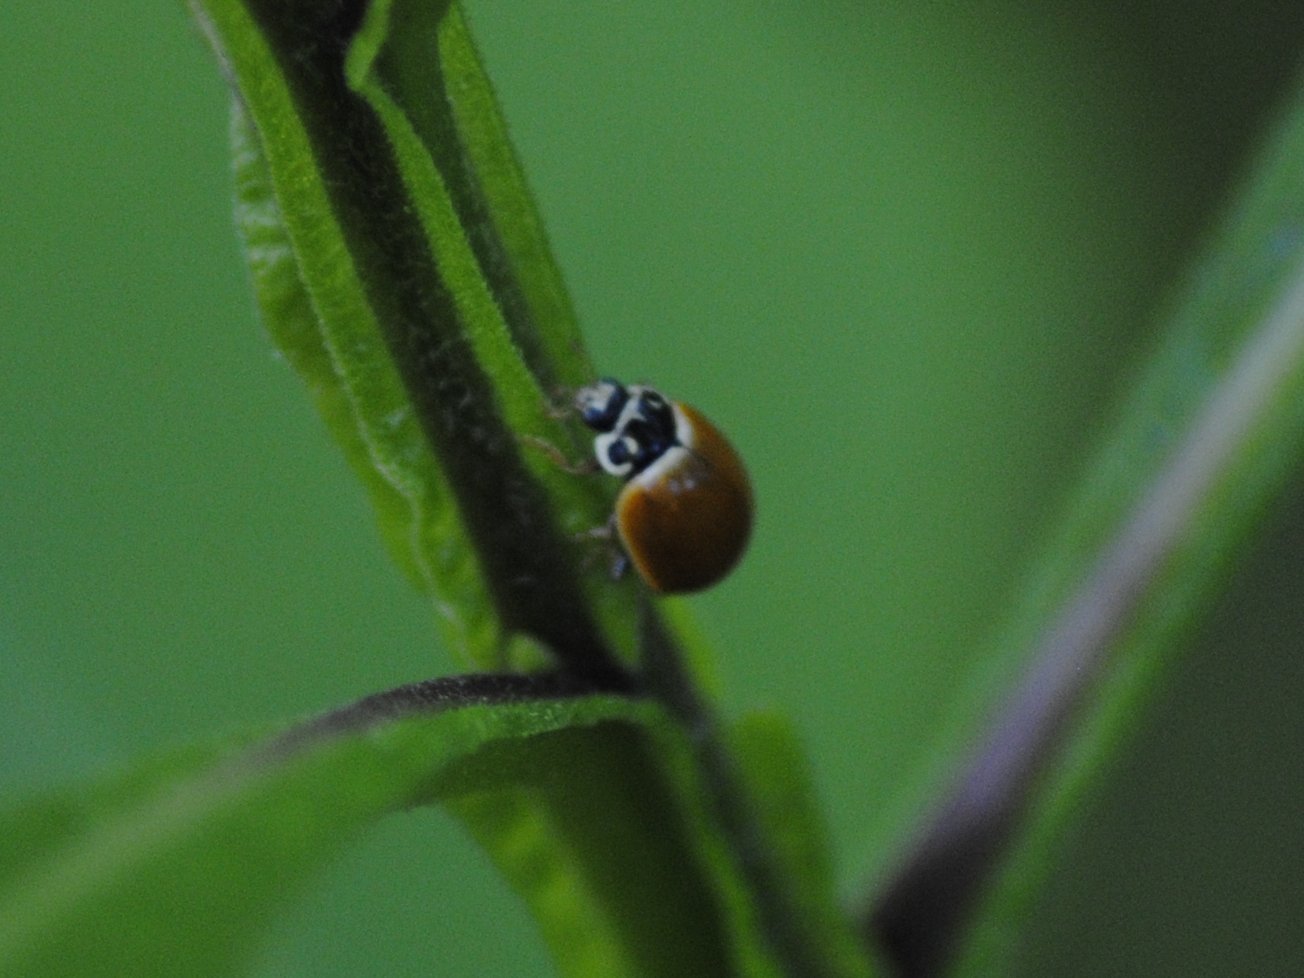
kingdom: Animalia
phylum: Arthropoda
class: Insecta
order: Coleoptera
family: Coccinellidae
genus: Cycloneda
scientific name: Cycloneda munda
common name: Polished lady beetle
